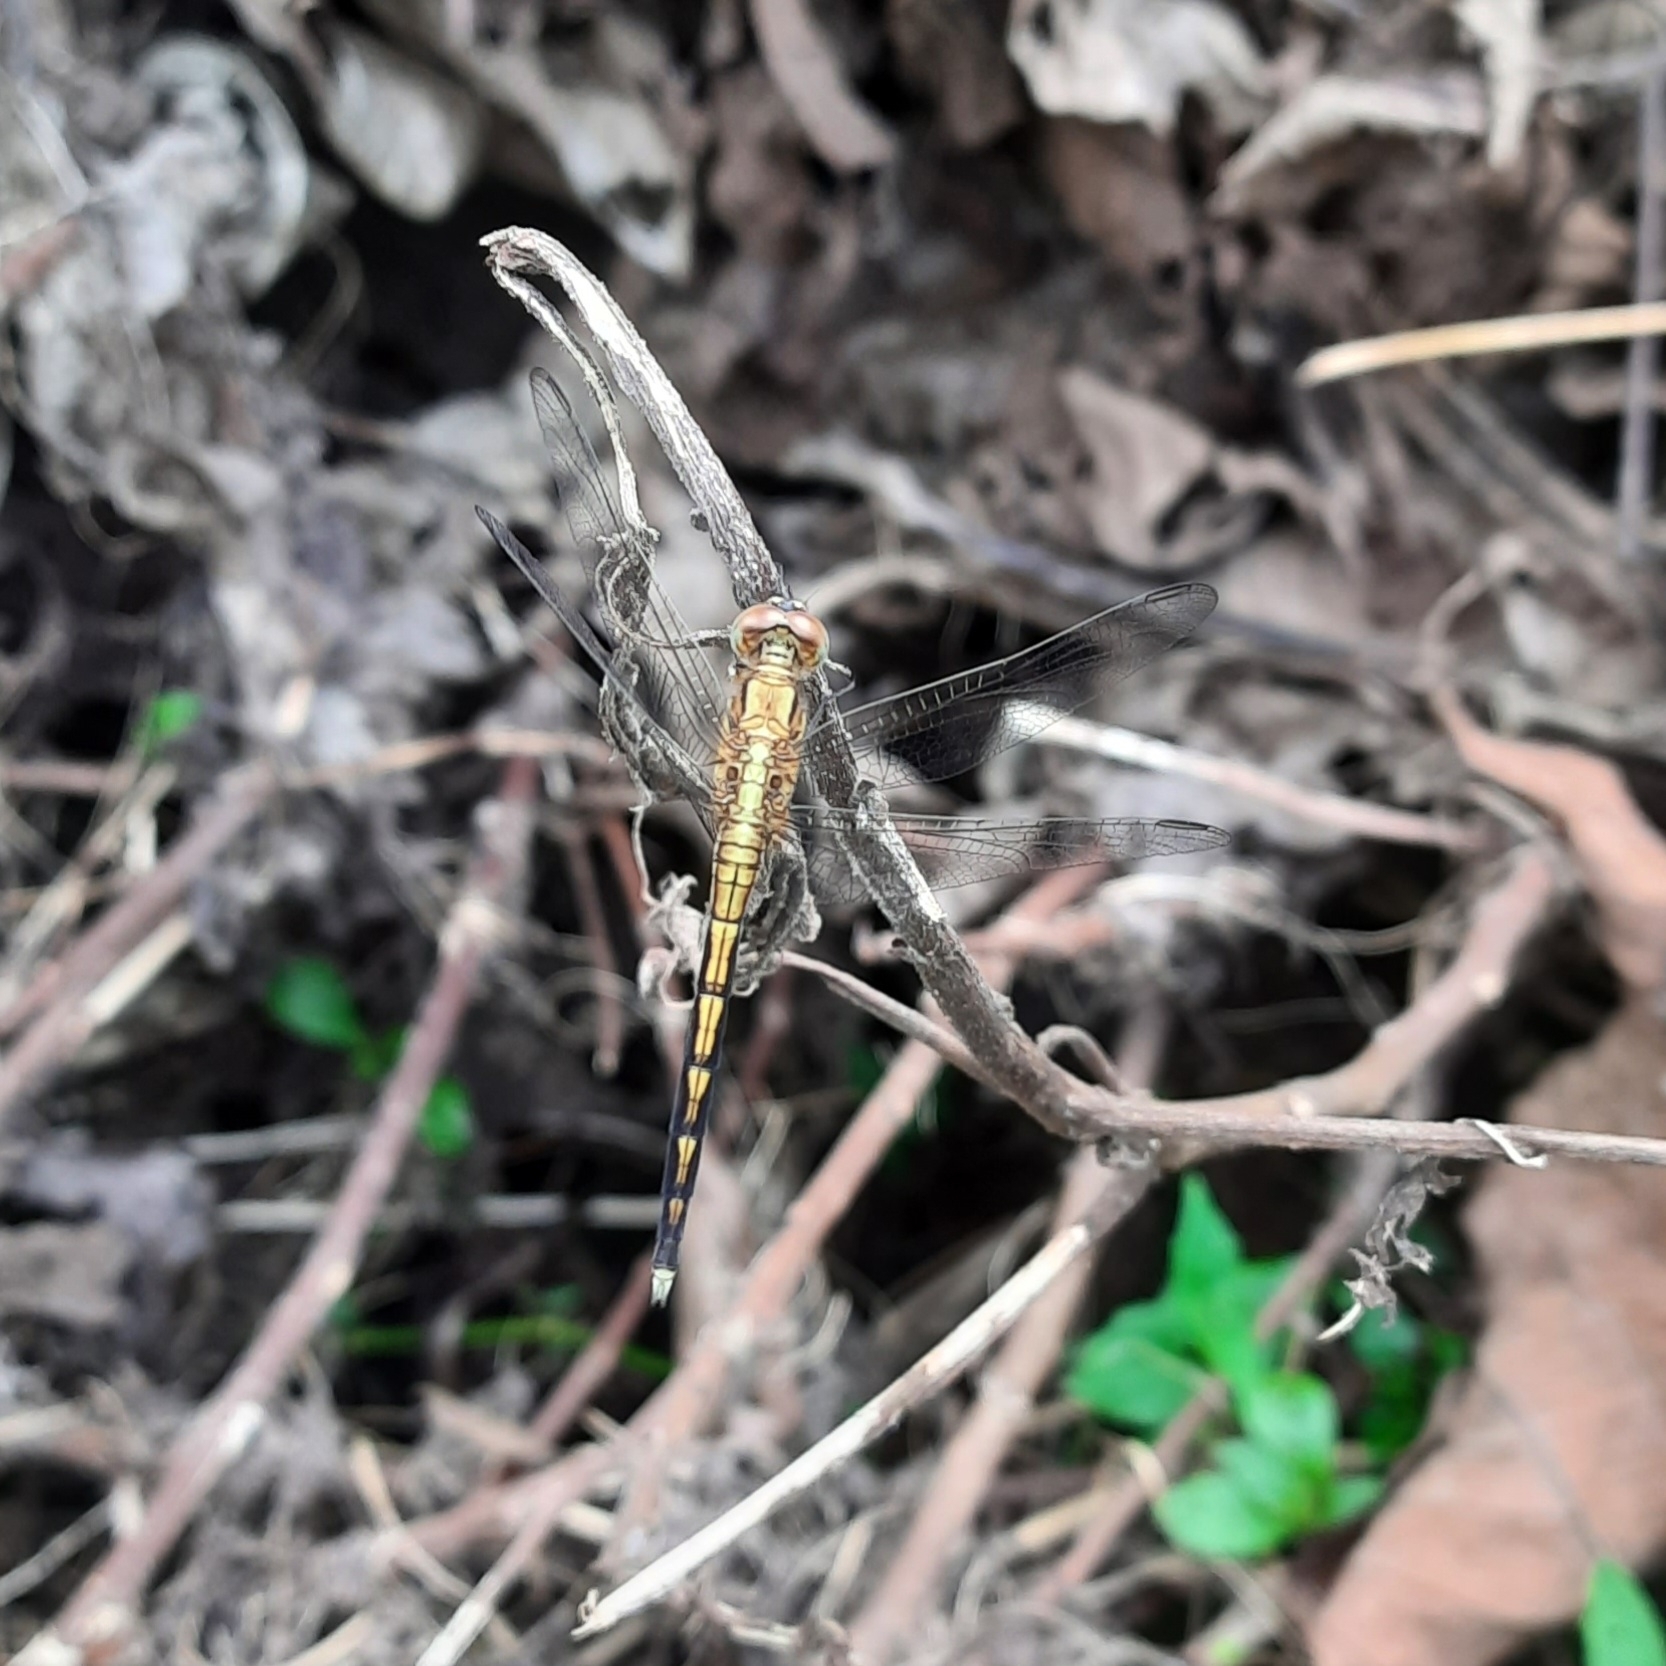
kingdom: Animalia
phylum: Arthropoda
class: Insecta
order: Odonata
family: Libellulidae
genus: Orthetrum
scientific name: Orthetrum luzonicum
